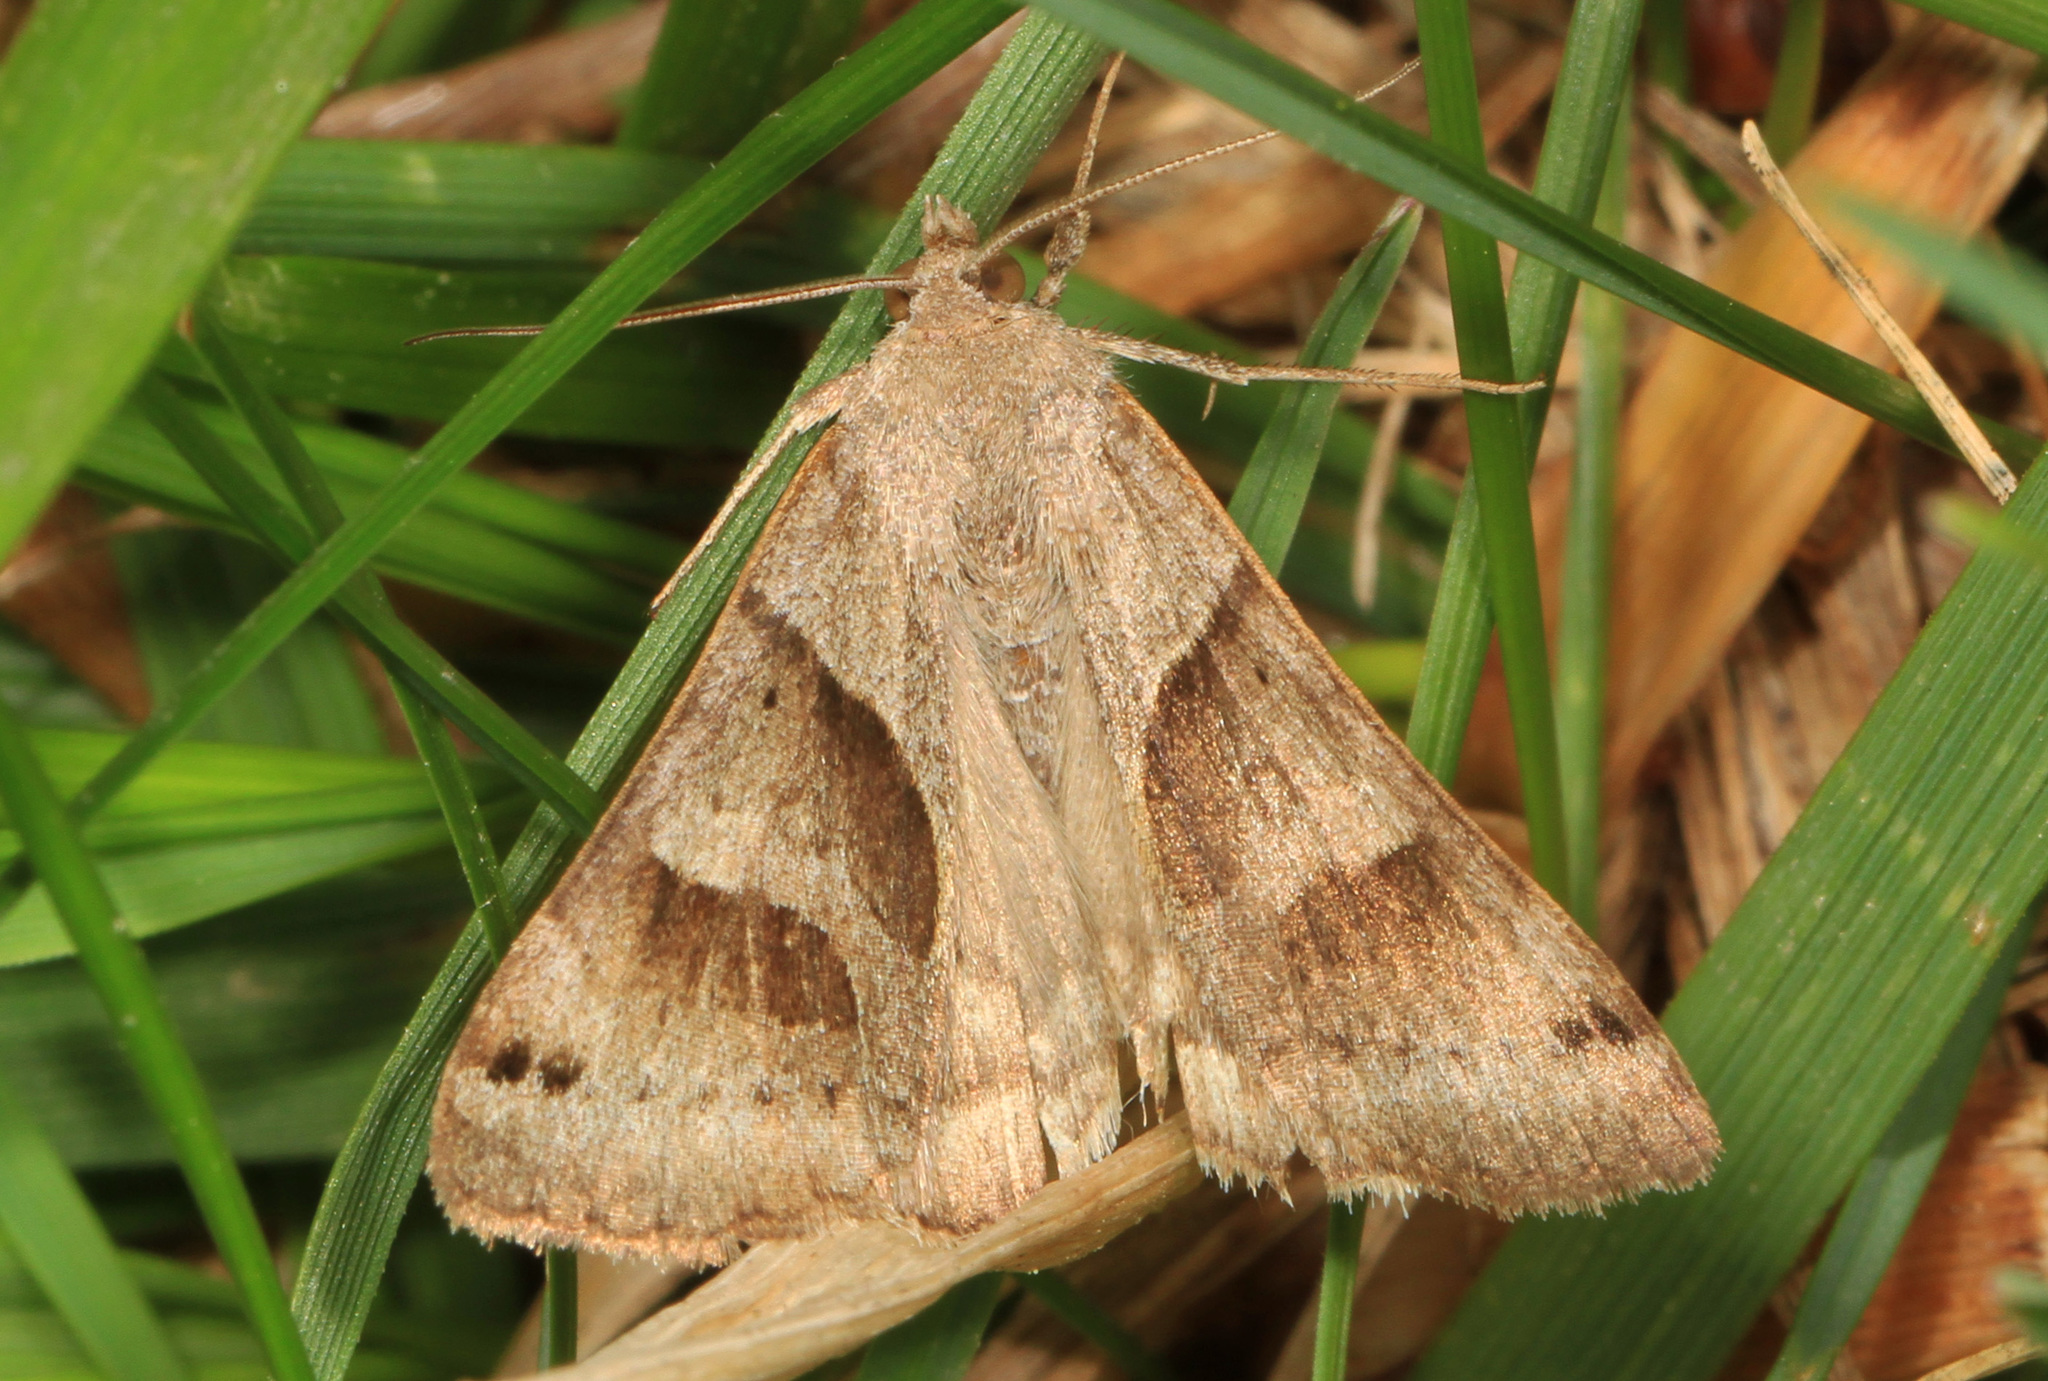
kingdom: Animalia
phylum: Arthropoda
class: Insecta
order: Lepidoptera
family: Erebidae
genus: Caenurgina
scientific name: Caenurgina crassiuscula
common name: Double-barred
